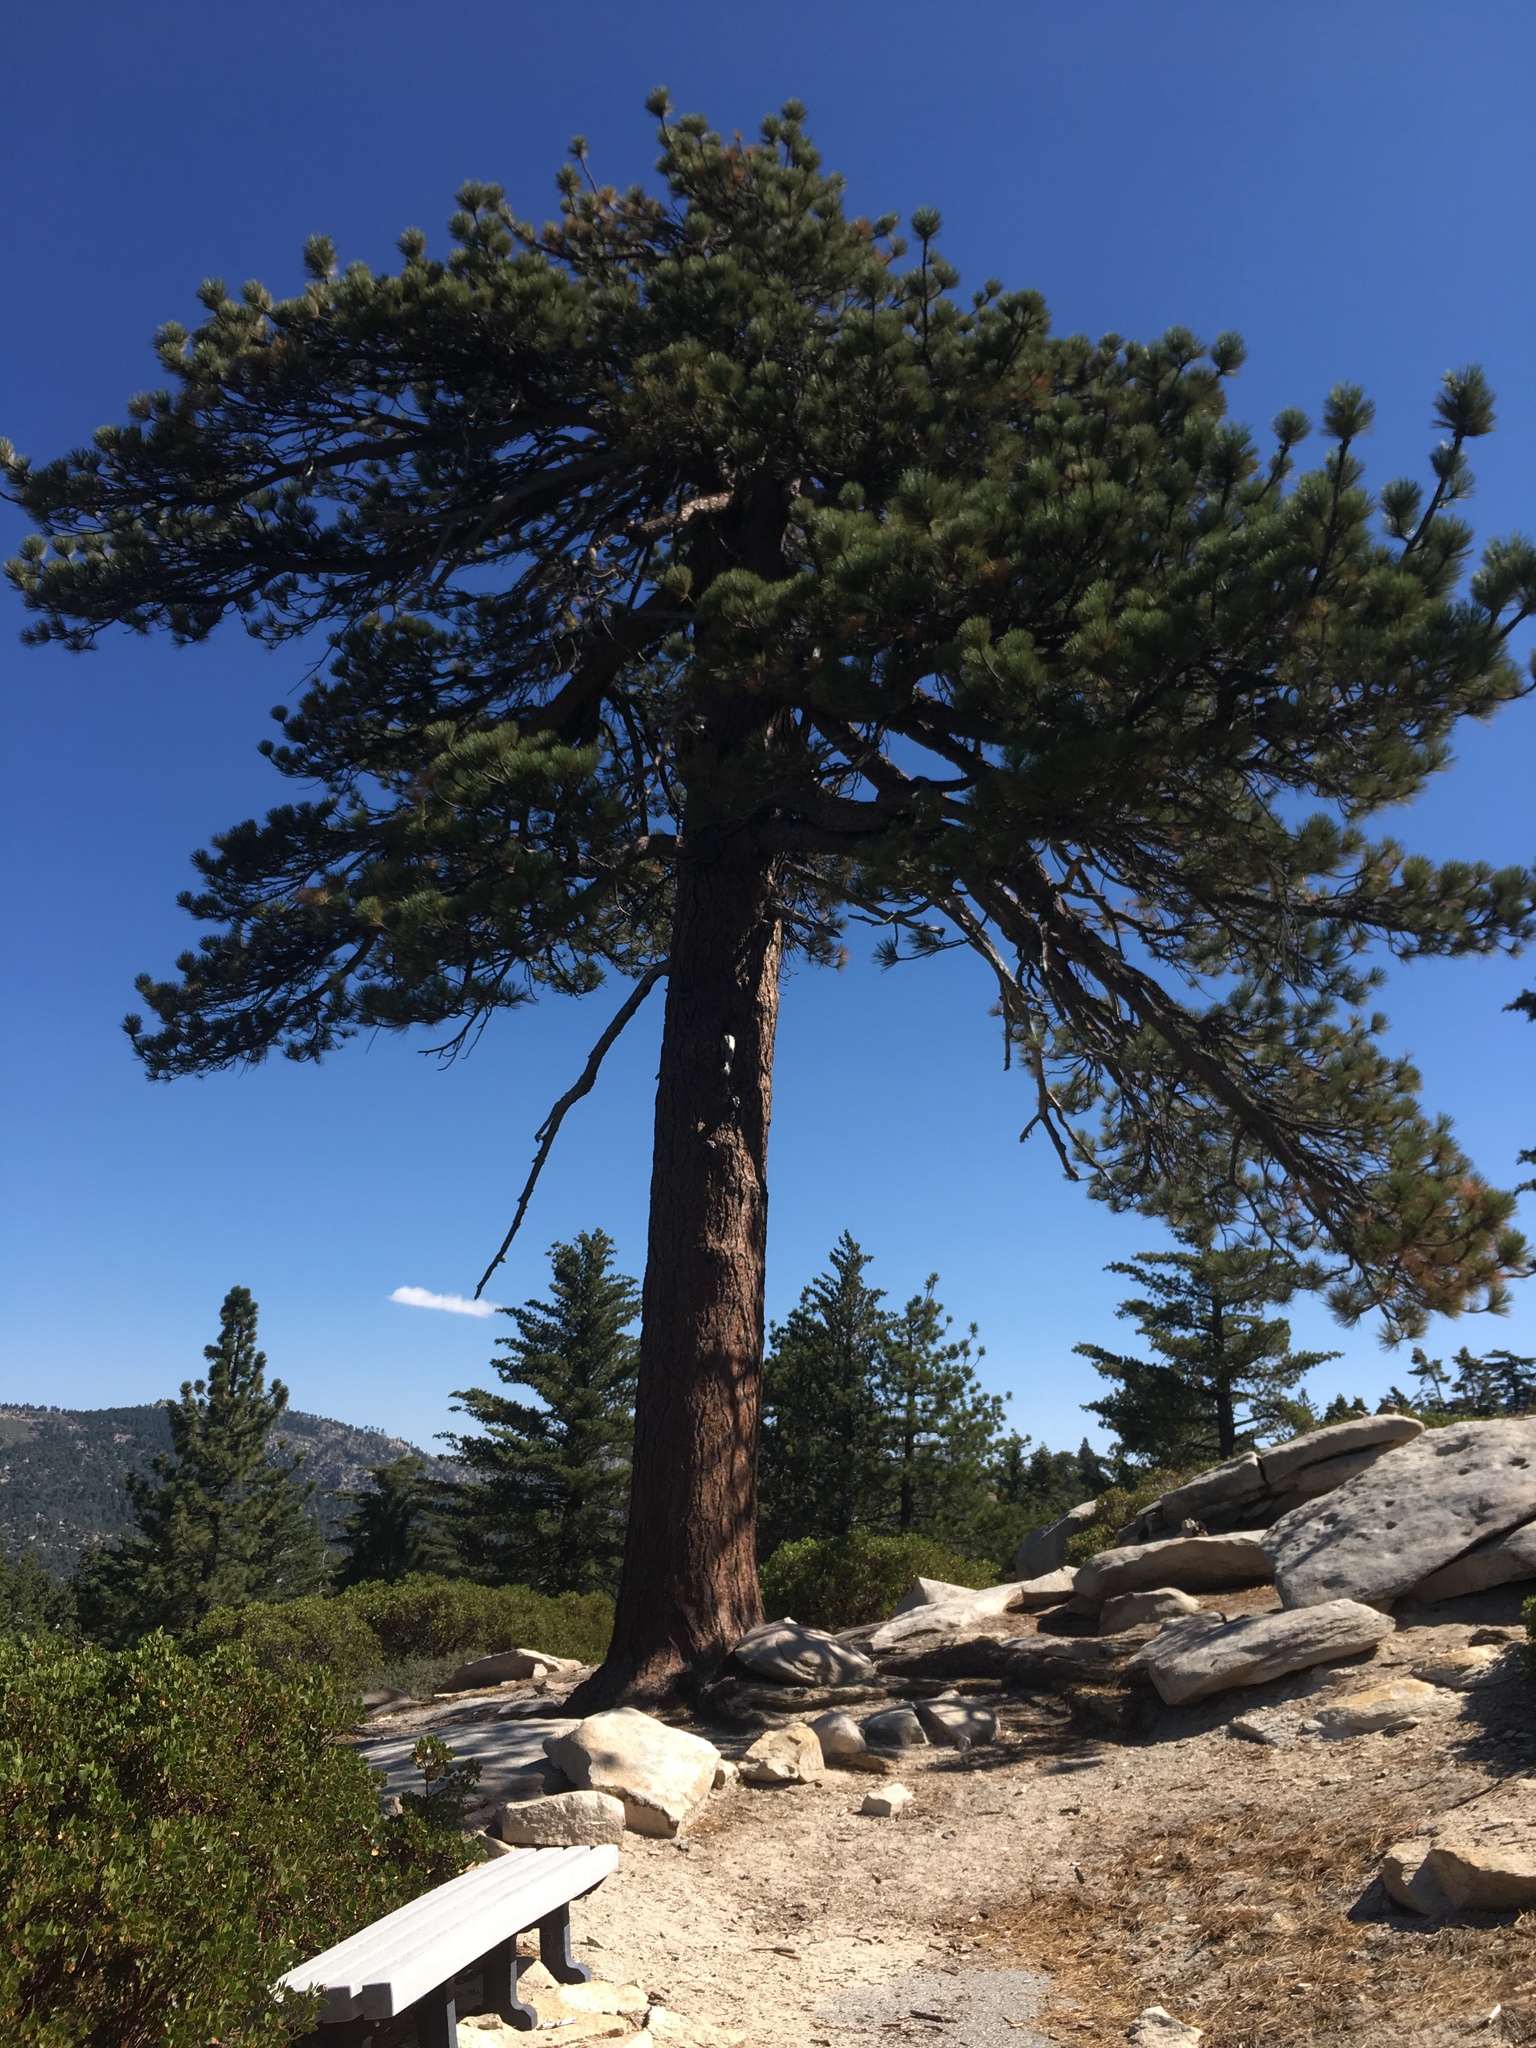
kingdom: Plantae
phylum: Tracheophyta
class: Pinopsida
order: Pinales
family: Pinaceae
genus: Pinus
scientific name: Pinus ponderosa
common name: Western yellow-pine
